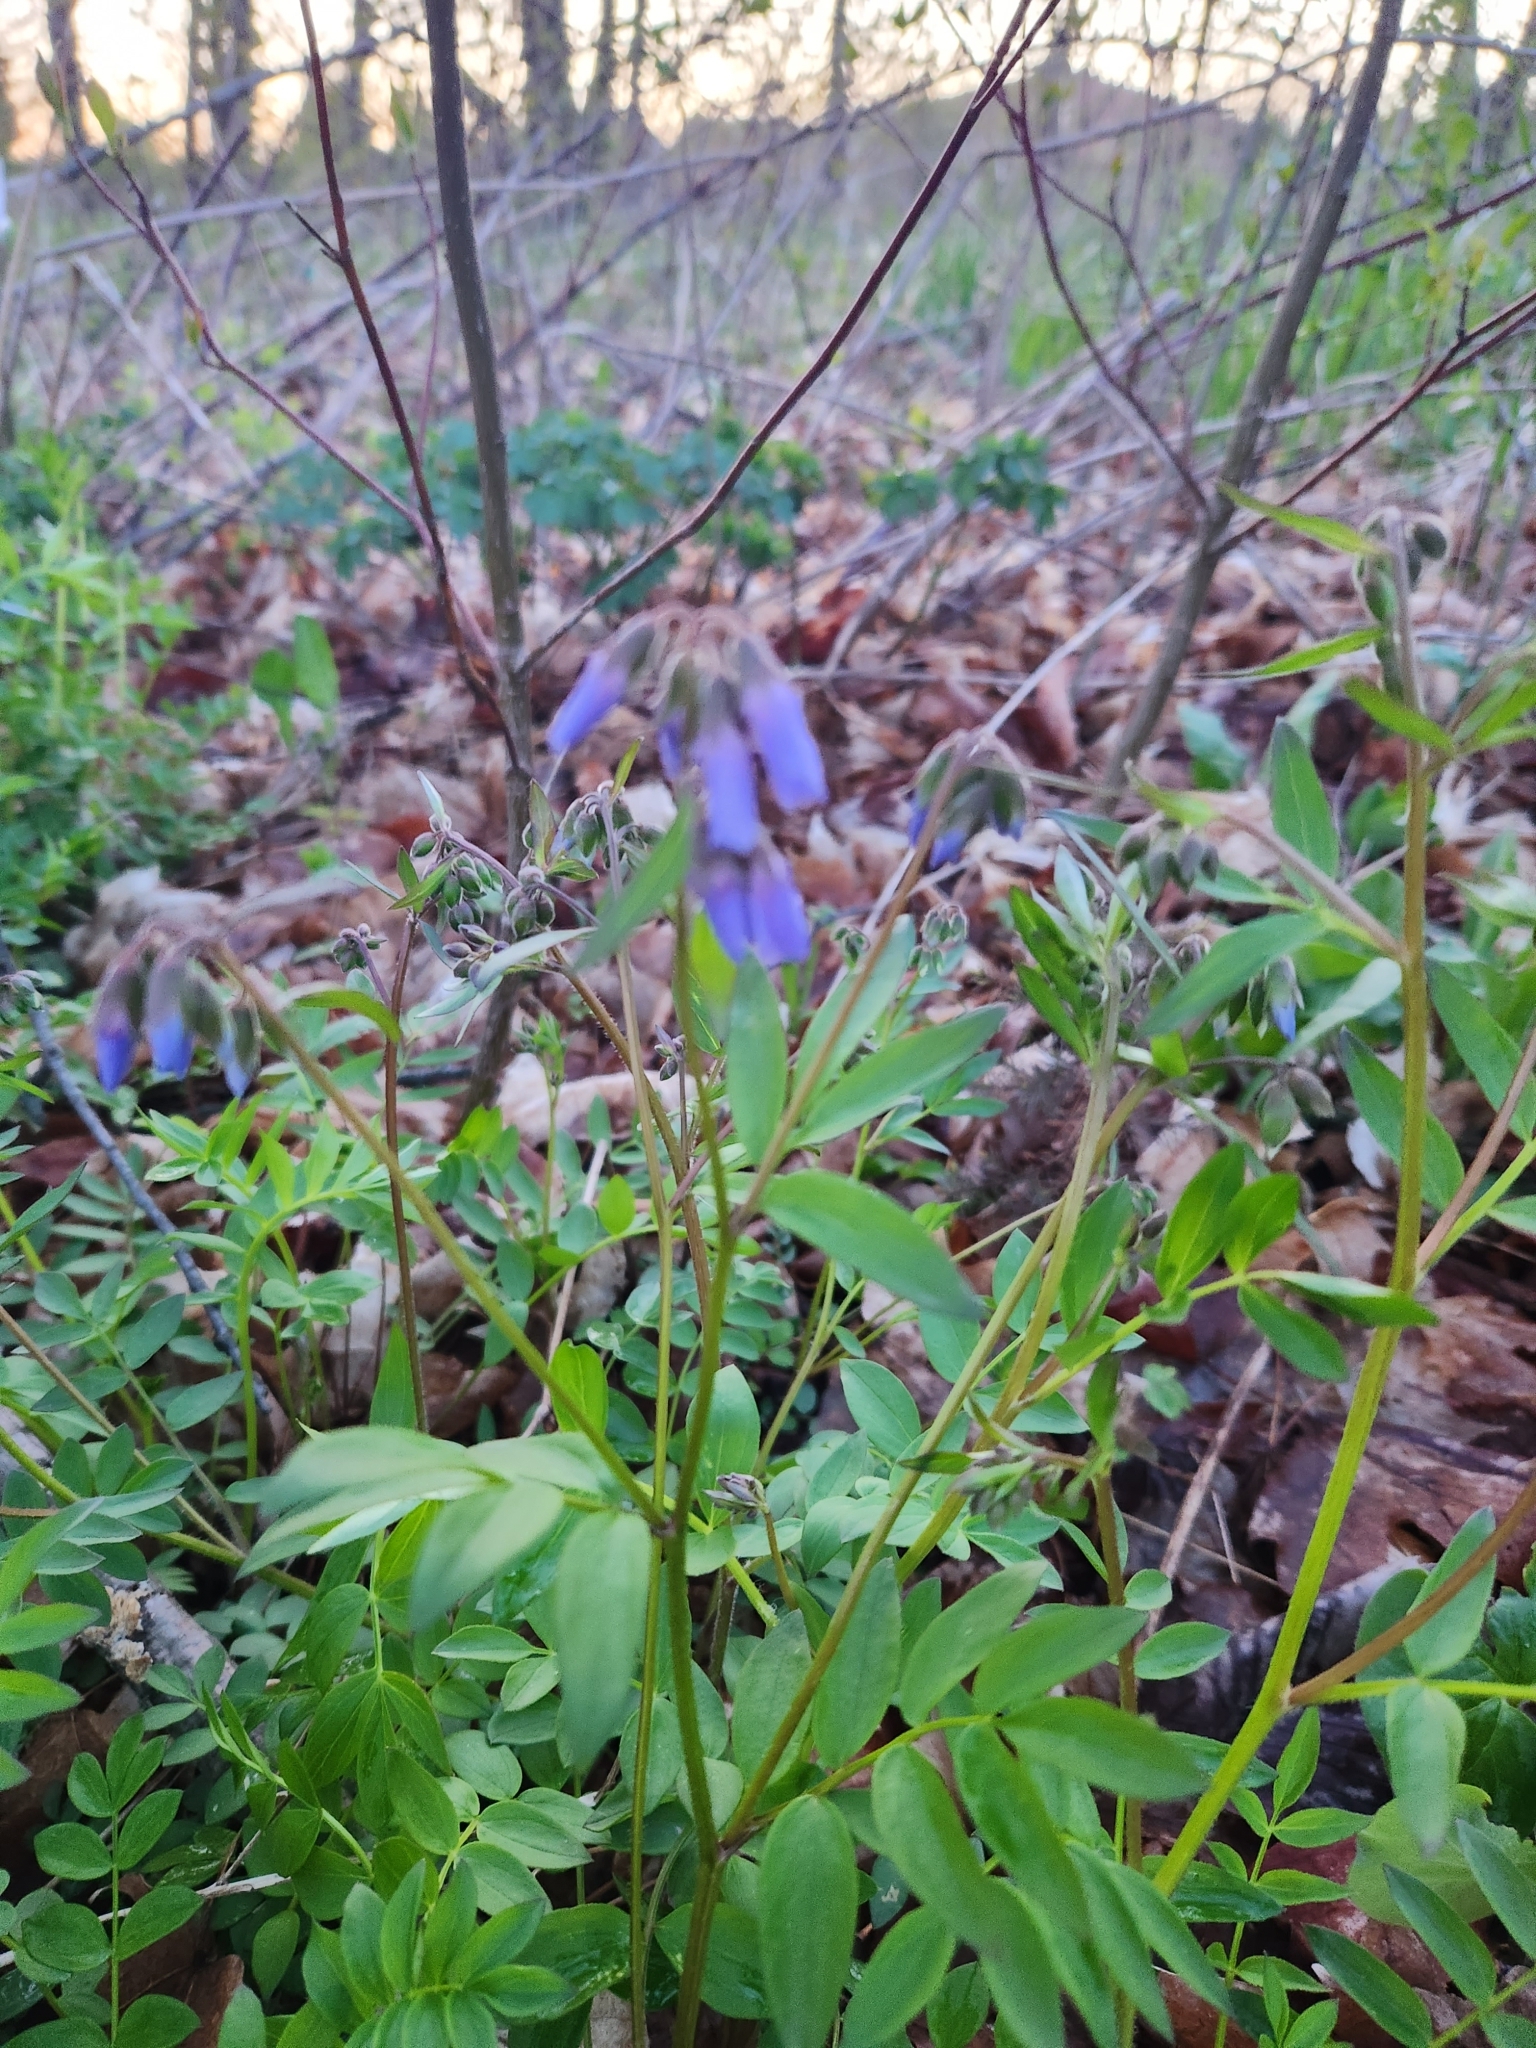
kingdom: Plantae
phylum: Tracheophyta
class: Magnoliopsida
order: Ericales
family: Polemoniaceae
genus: Polemonium
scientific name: Polemonium reptans
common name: Creeping jacob's-ladder
